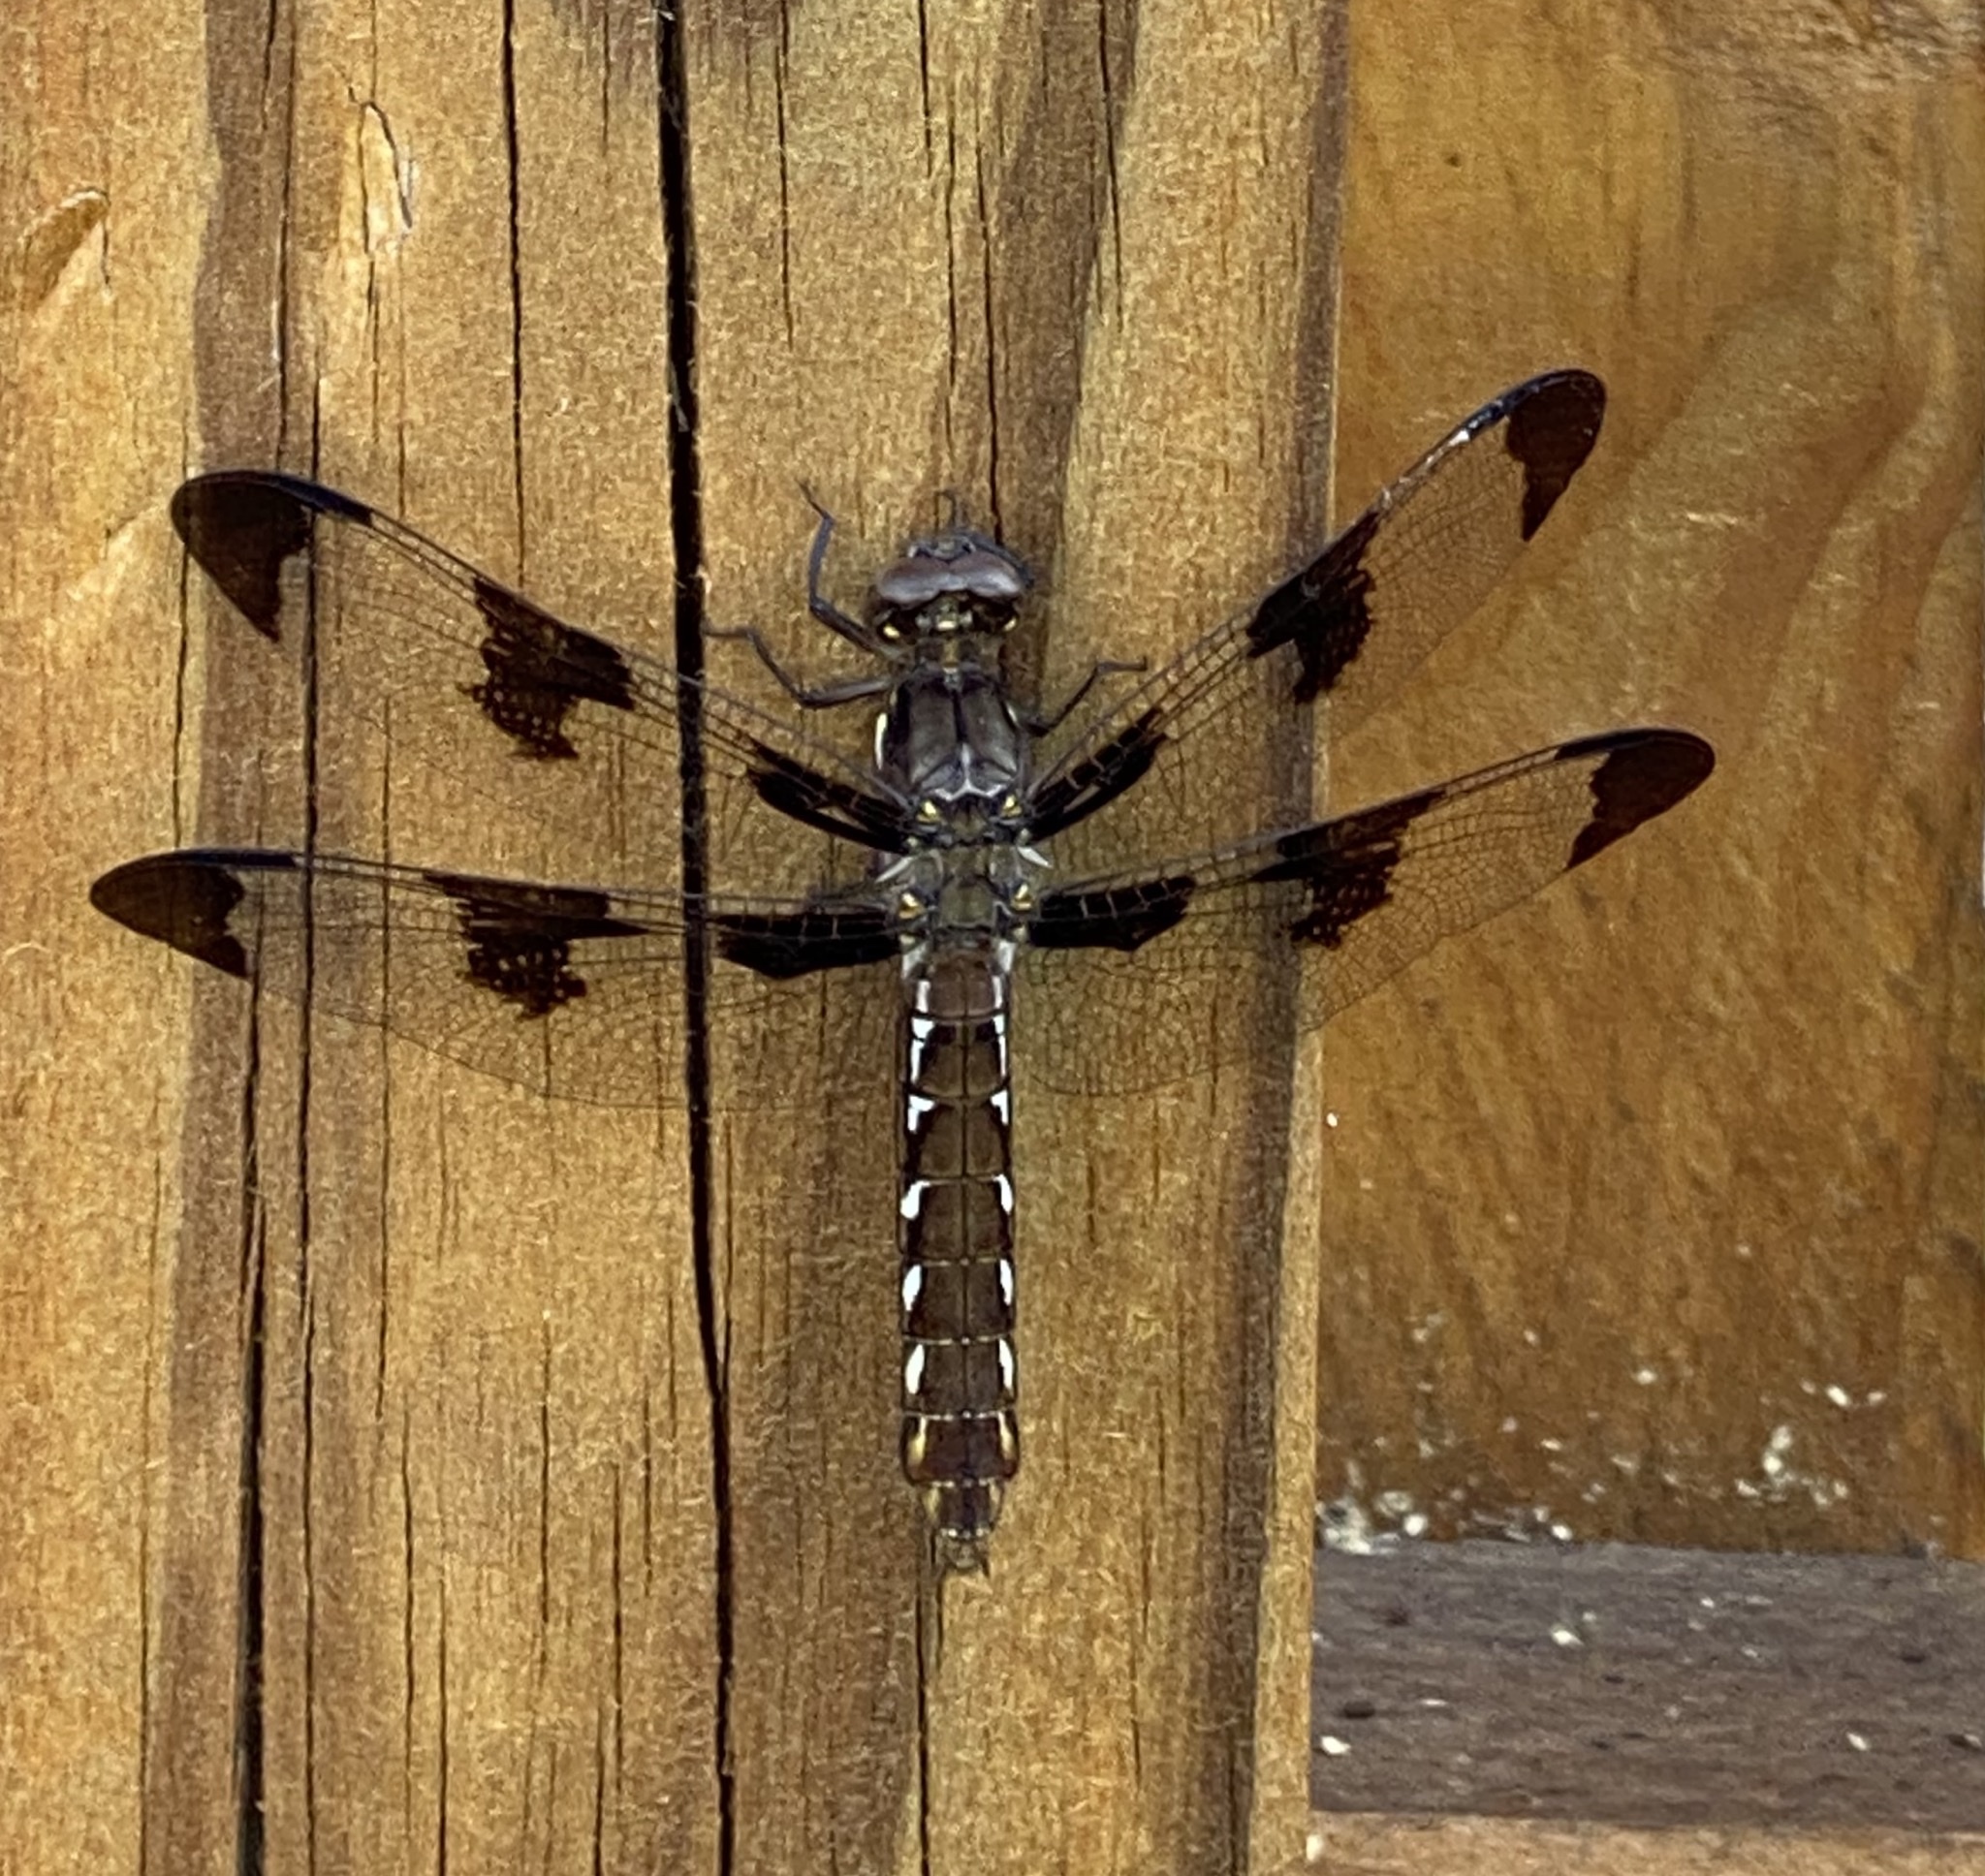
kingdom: Animalia
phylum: Arthropoda
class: Insecta
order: Odonata
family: Libellulidae
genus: Plathemis
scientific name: Plathemis lydia
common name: Common whitetail
